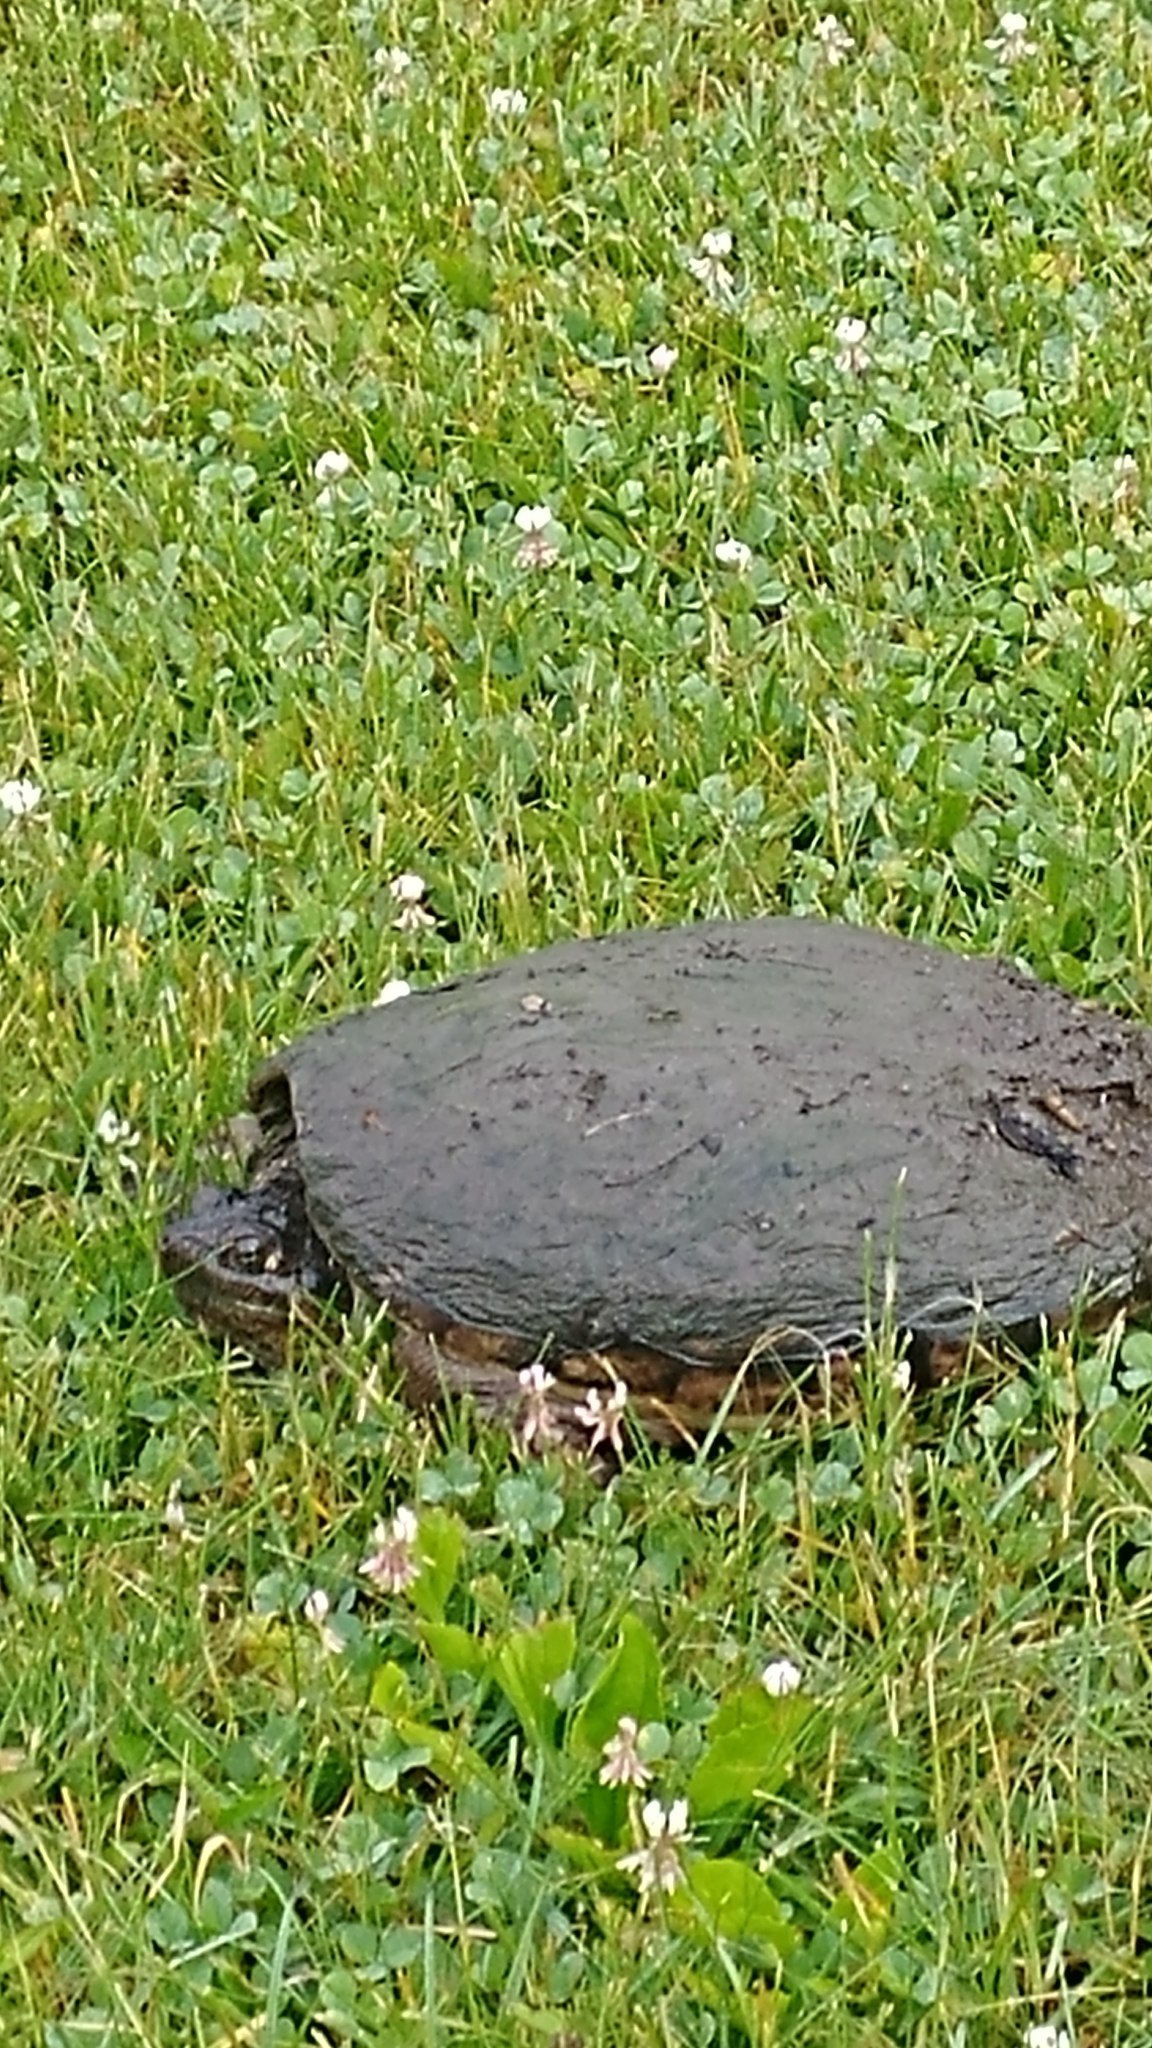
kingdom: Animalia
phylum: Chordata
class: Testudines
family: Chelydridae
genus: Chelydra
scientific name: Chelydra serpentina
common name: Common snapping turtle
